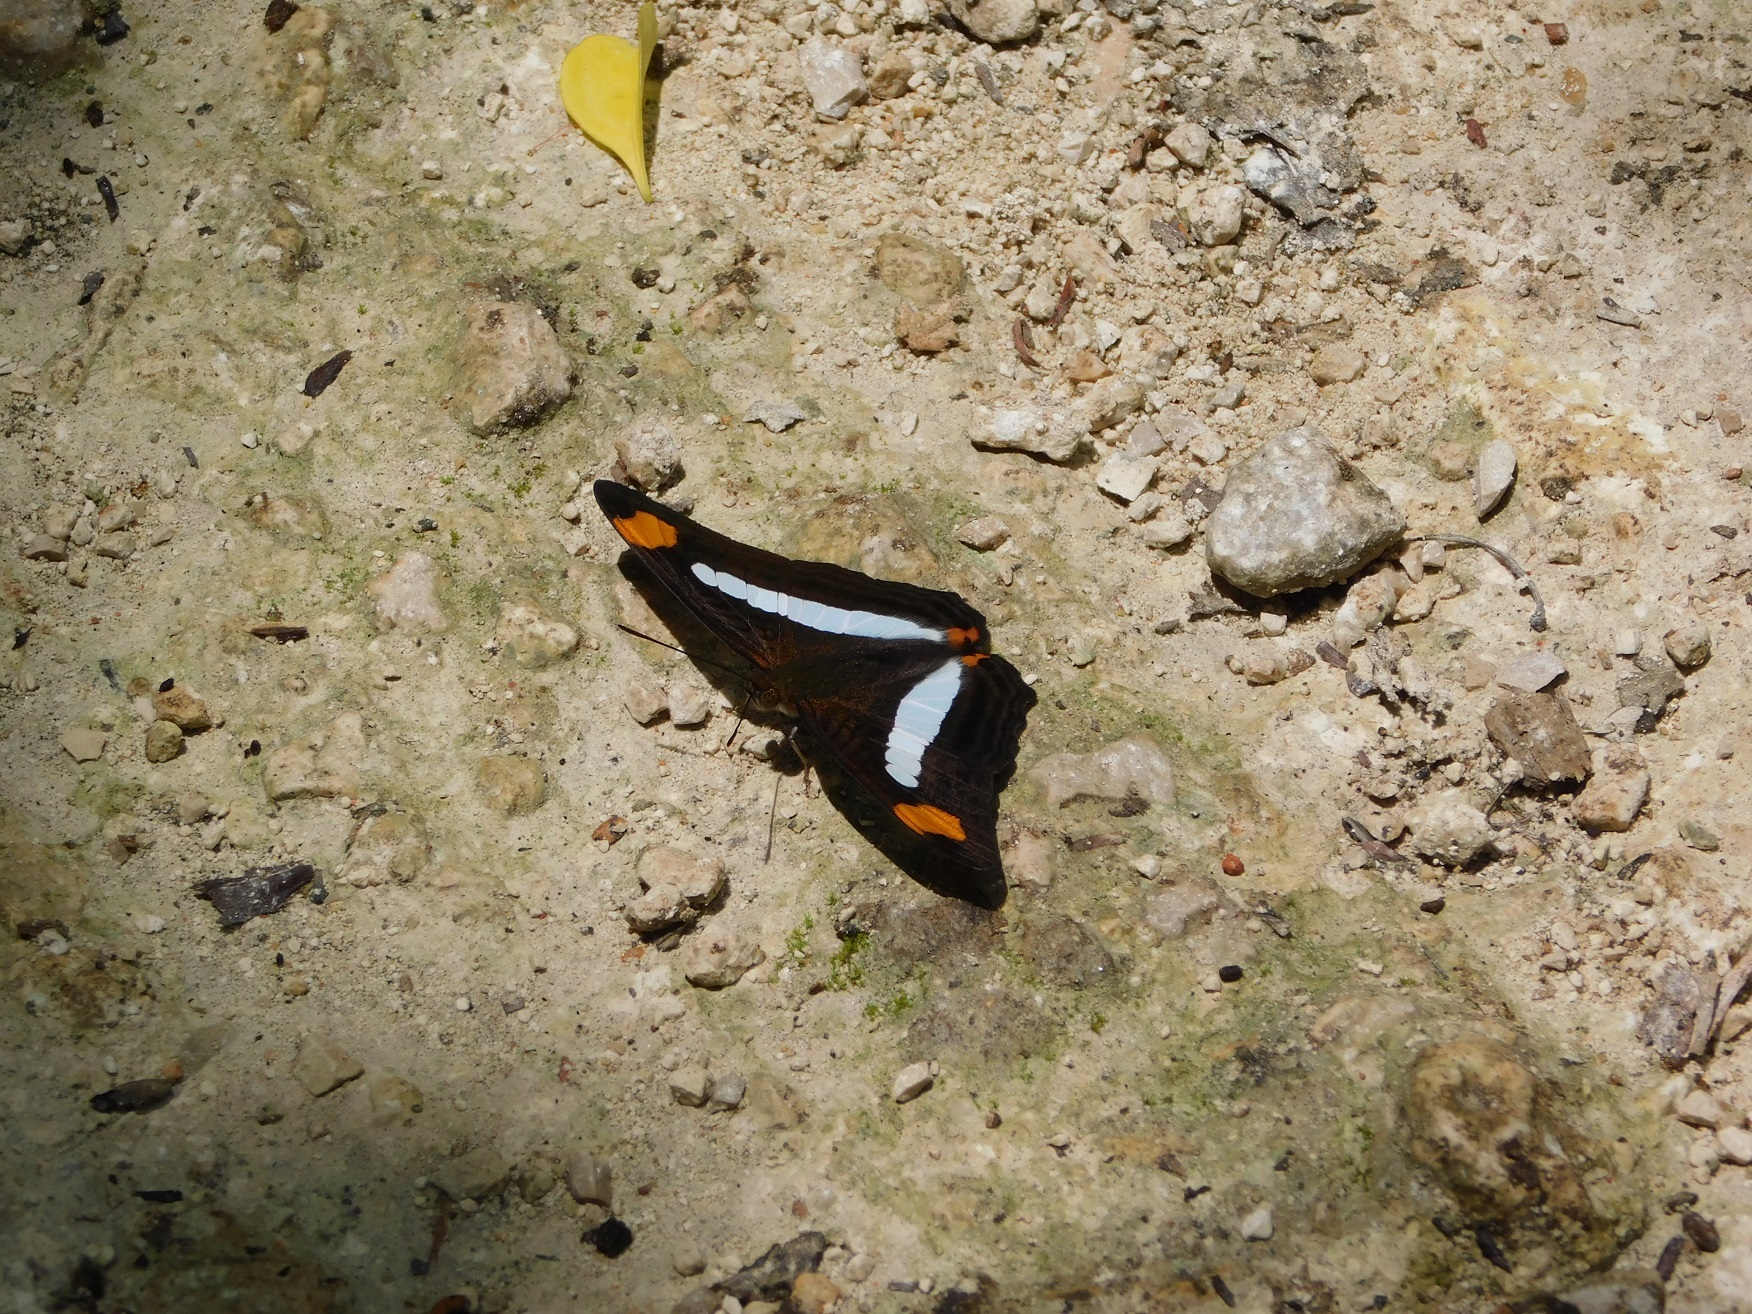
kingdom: Animalia
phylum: Arthropoda
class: Insecta
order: Lepidoptera
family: Nymphalidae
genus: Limenitis
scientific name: Limenitis iphiclus
